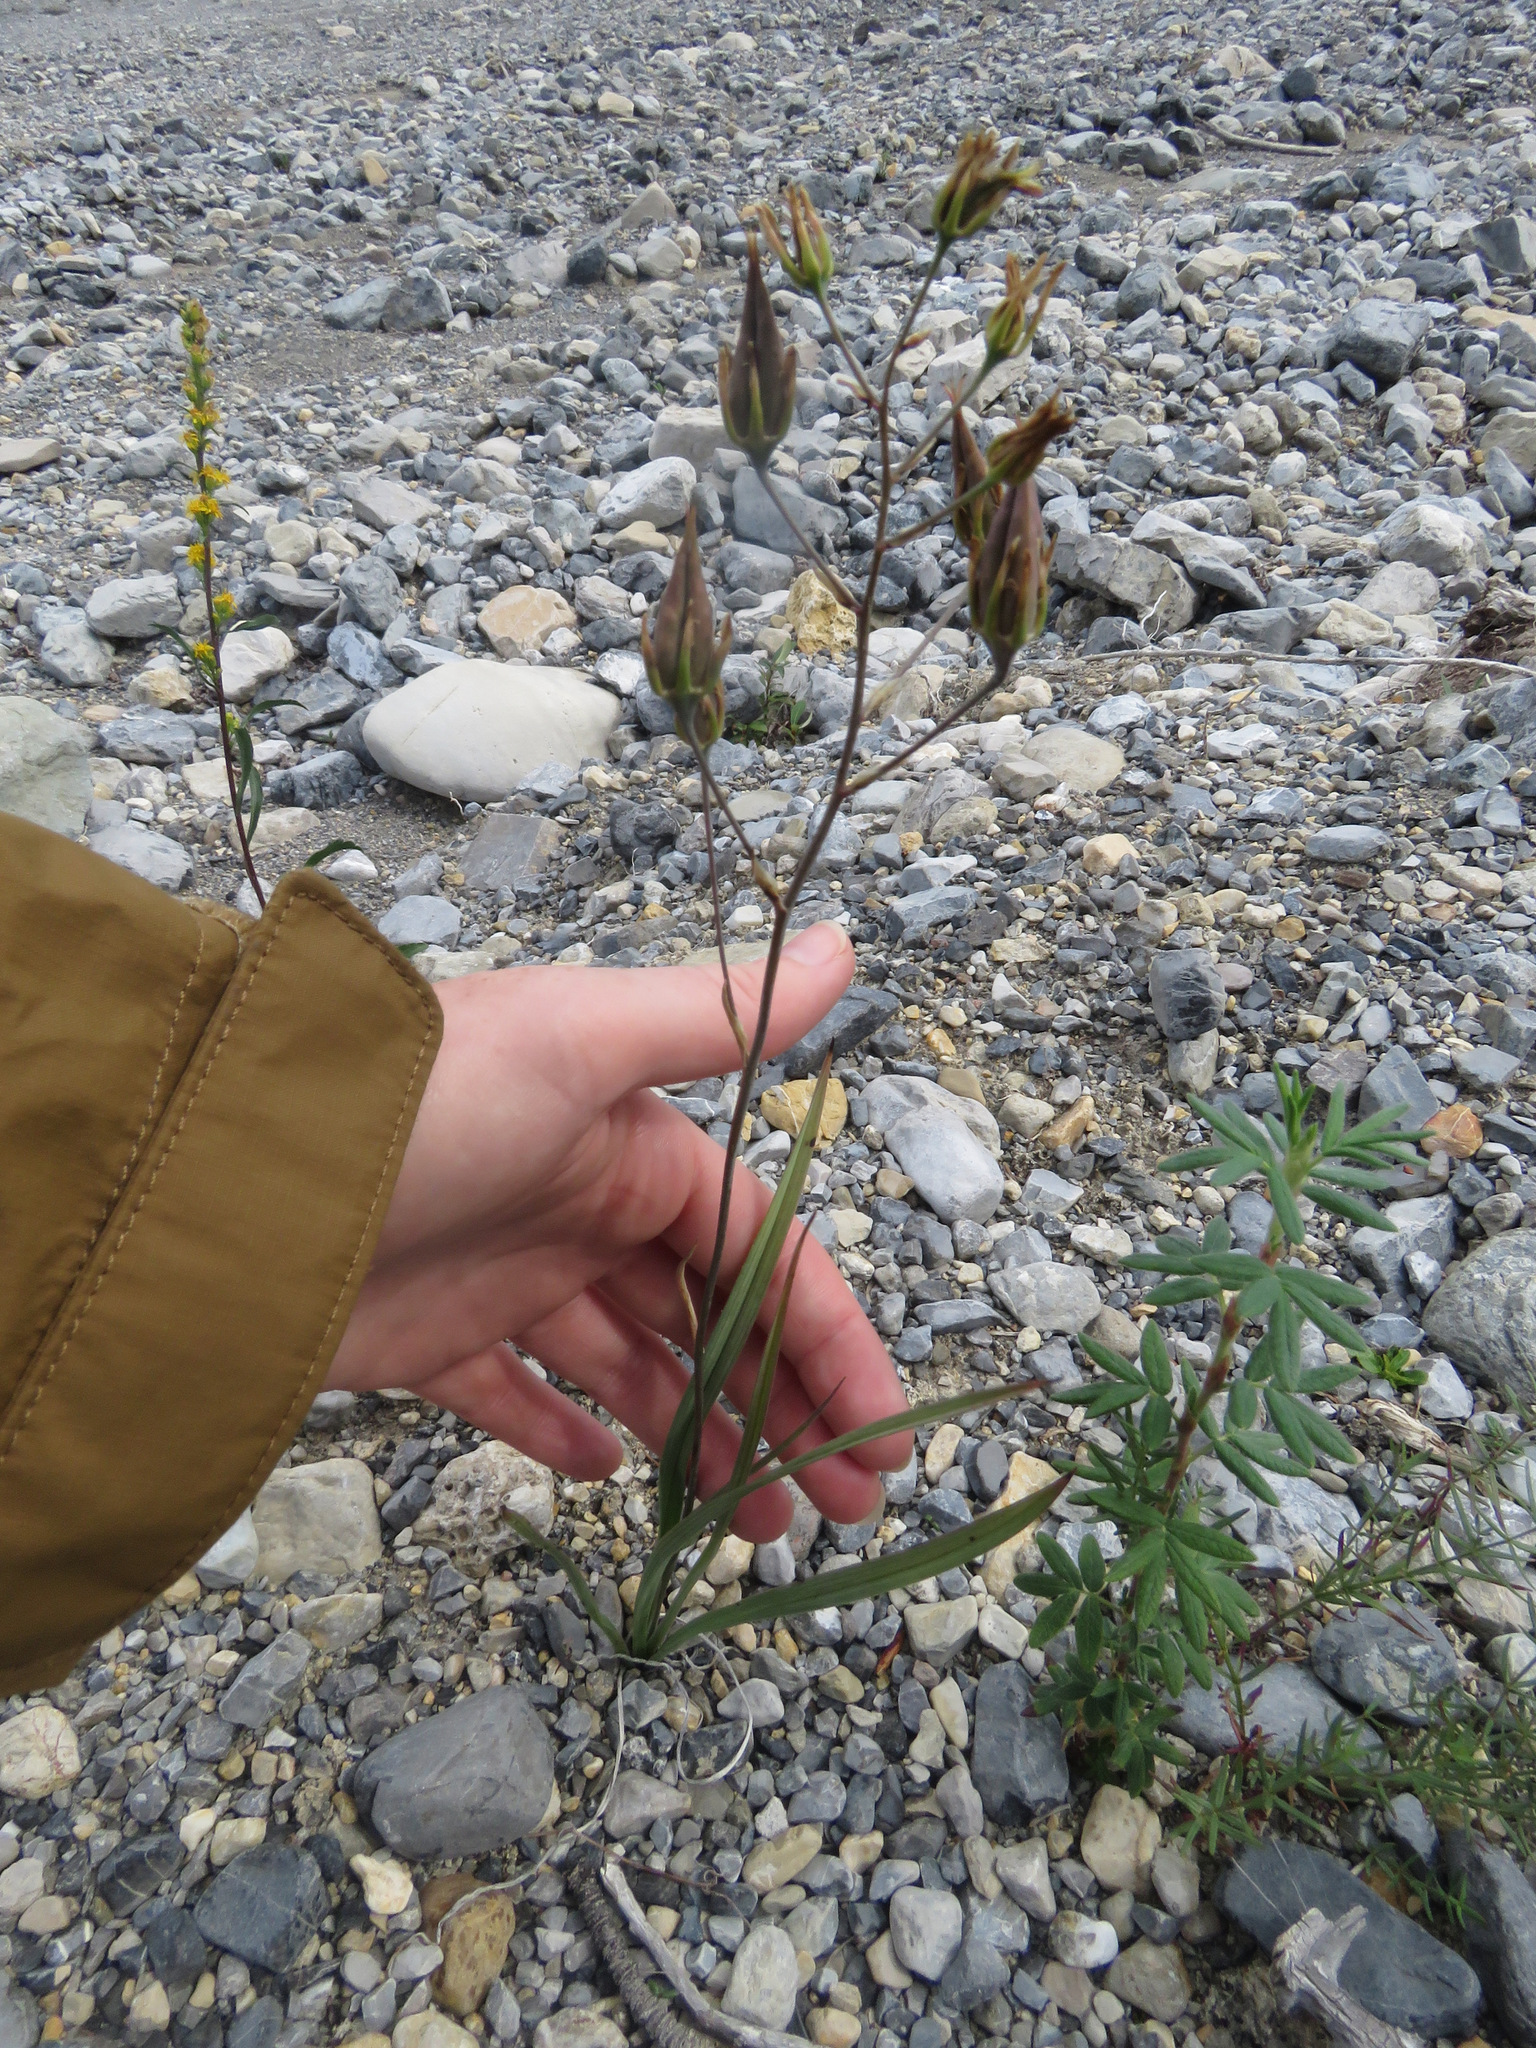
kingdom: Plantae
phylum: Tracheophyta
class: Liliopsida
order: Liliales
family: Melanthiaceae
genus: Anticlea
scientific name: Anticlea elegans
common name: Mountain death camas
